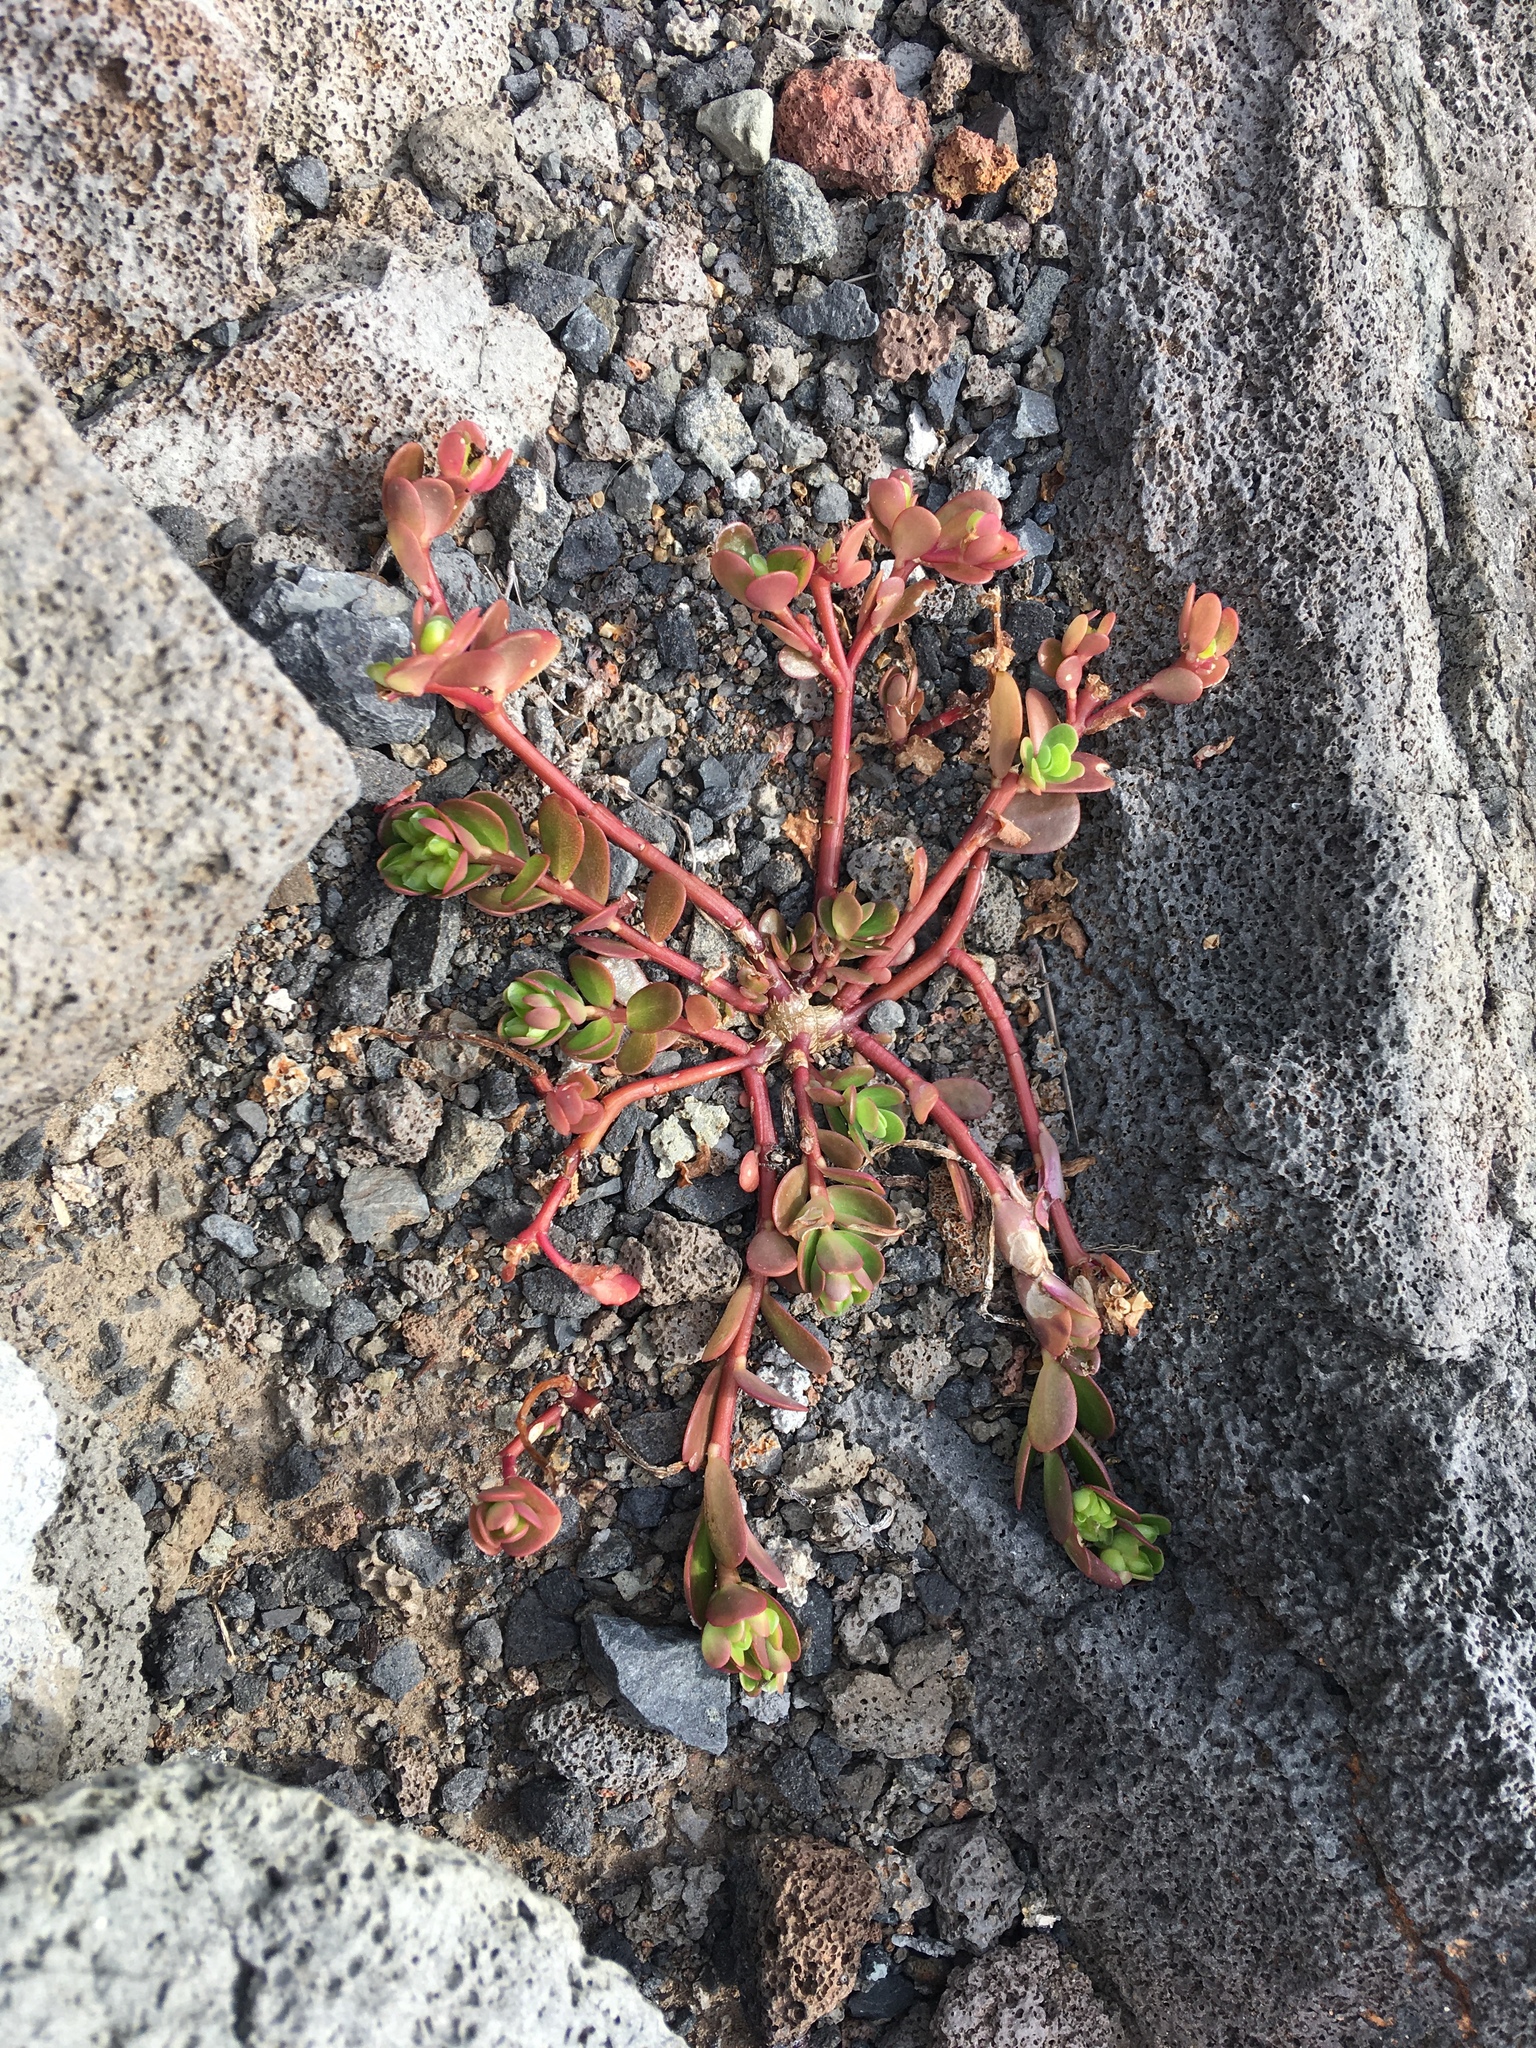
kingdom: Plantae
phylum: Tracheophyta
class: Magnoliopsida
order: Caryophyllales
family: Portulacaceae
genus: Portulaca
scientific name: Portulaca oleracea
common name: Common purslane
